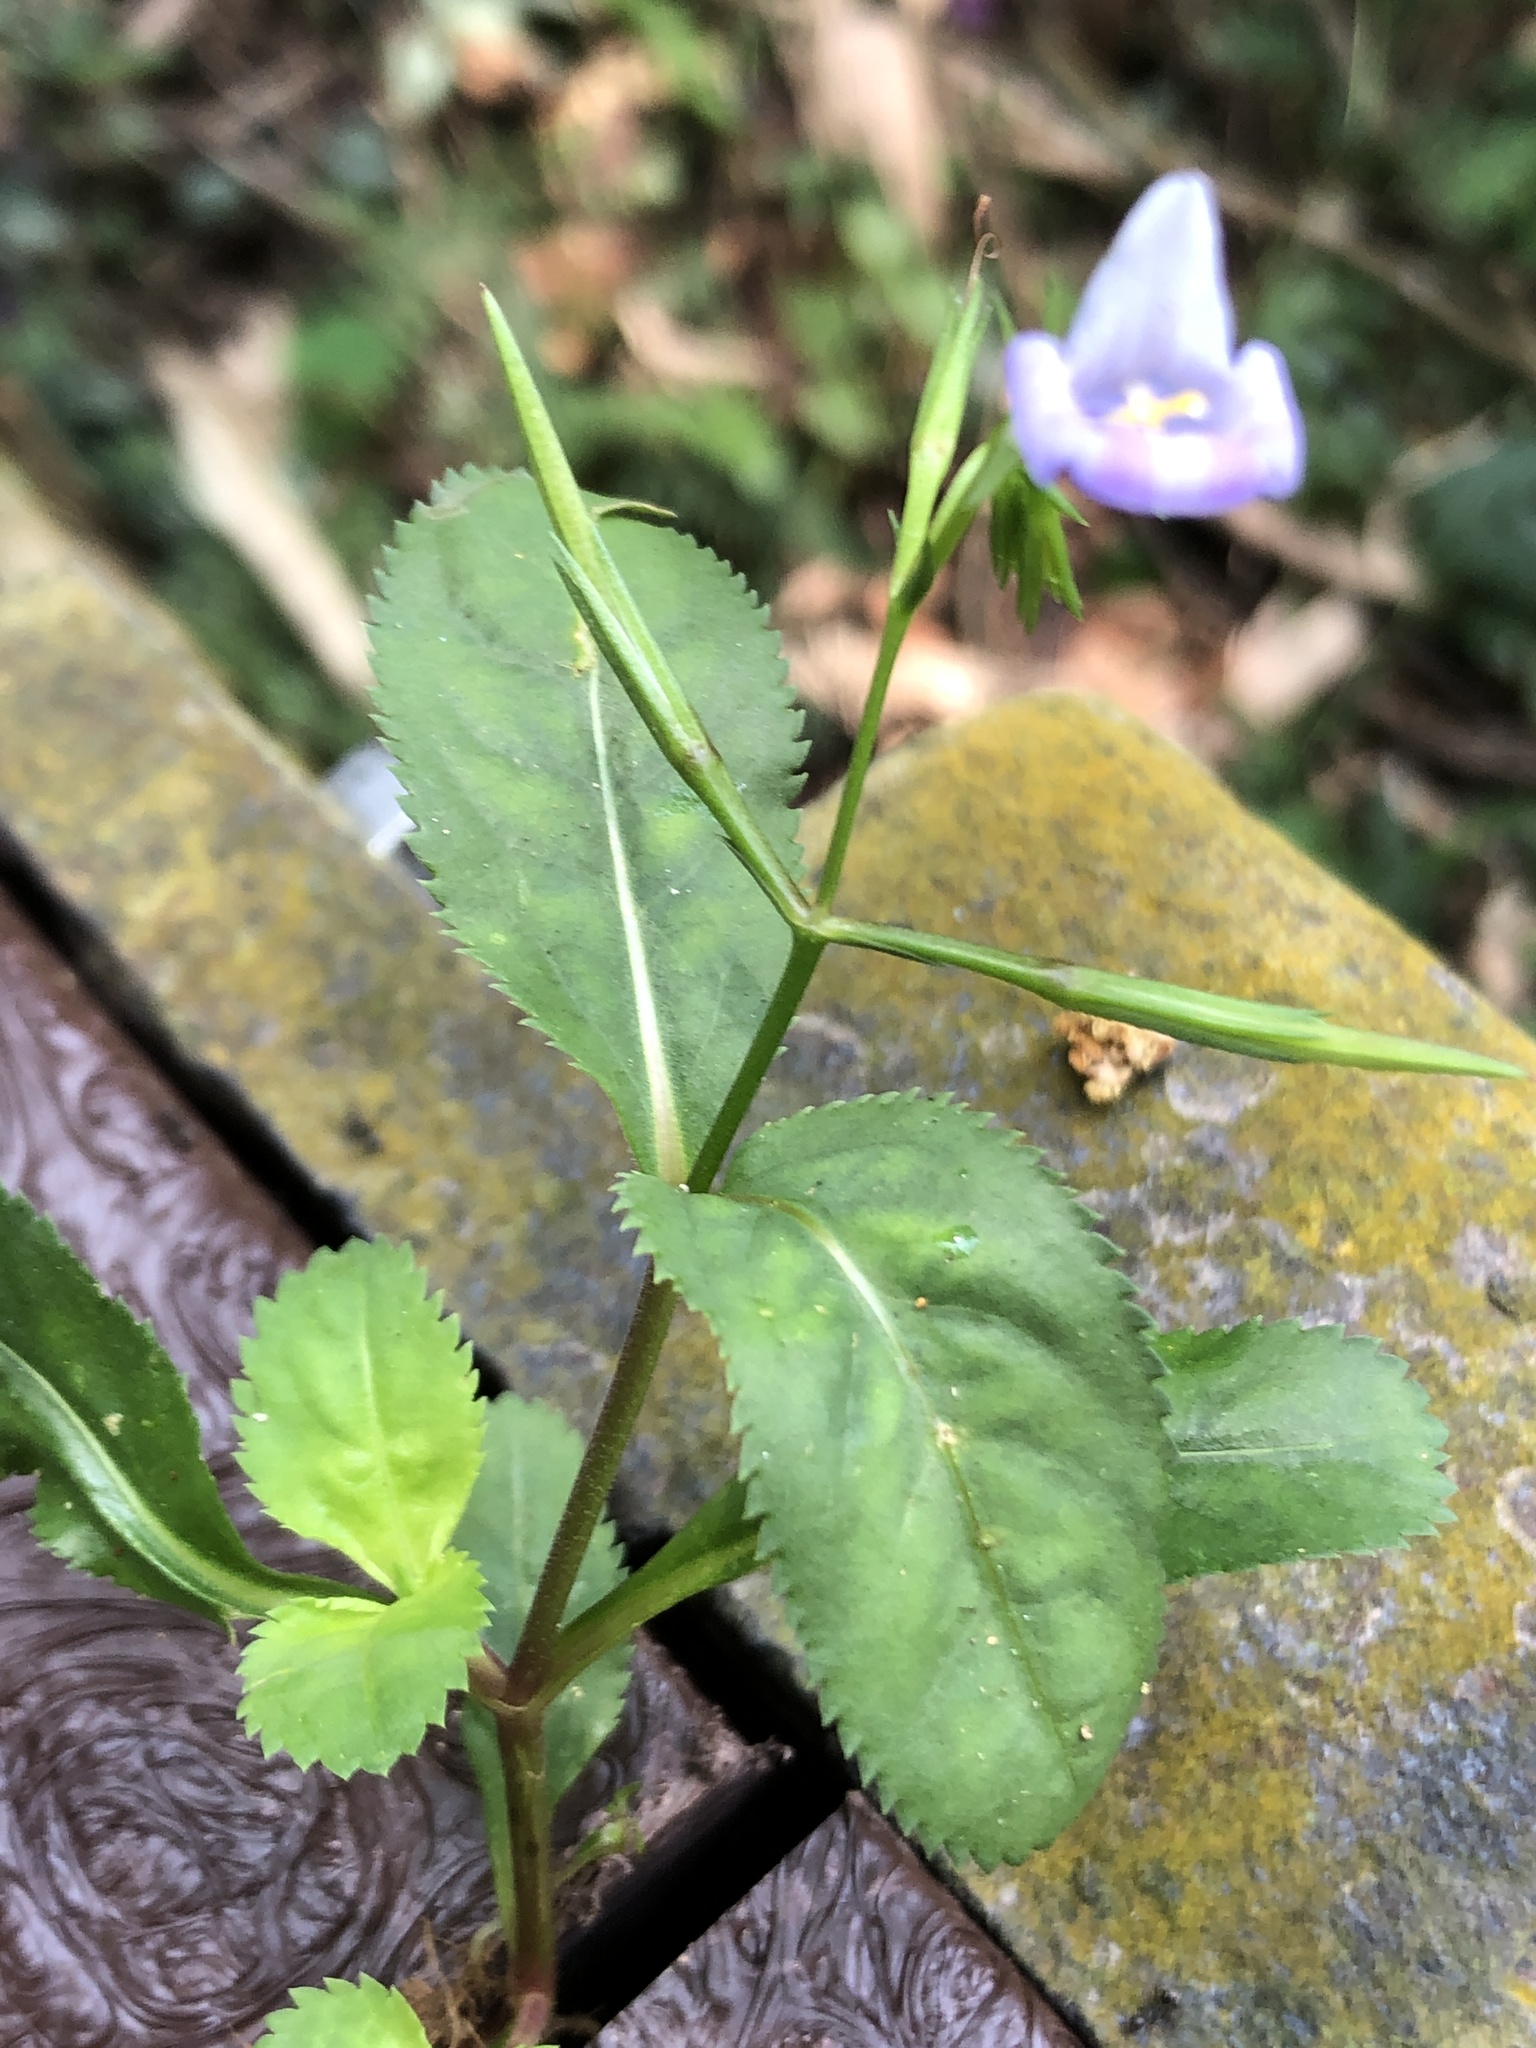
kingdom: Plantae
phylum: Tracheophyta
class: Magnoliopsida
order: Lamiales
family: Linderniaceae
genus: Bonnaya
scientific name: Bonnaya ruelloides
